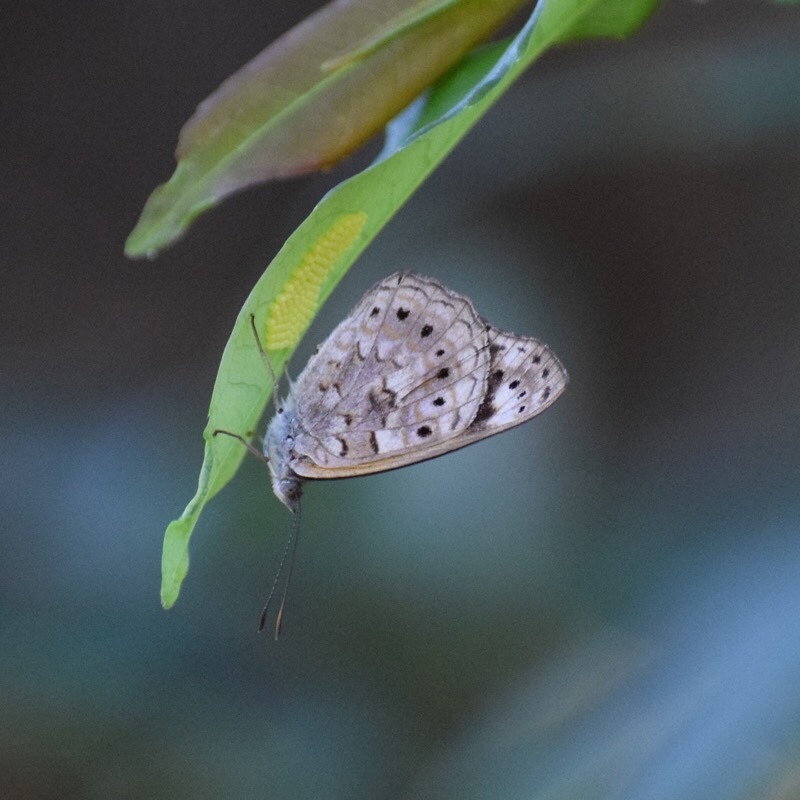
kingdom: Animalia
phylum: Arthropoda
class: Insecta
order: Lepidoptera
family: Nymphalidae
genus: Asterope
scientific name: Asterope boisduvali
